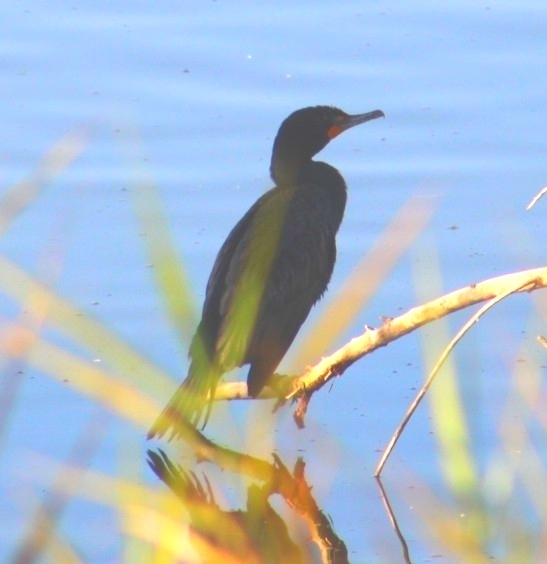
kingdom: Animalia
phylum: Chordata
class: Aves
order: Suliformes
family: Phalacrocoracidae
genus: Phalacrocorax
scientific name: Phalacrocorax auritus
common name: Double-crested cormorant
